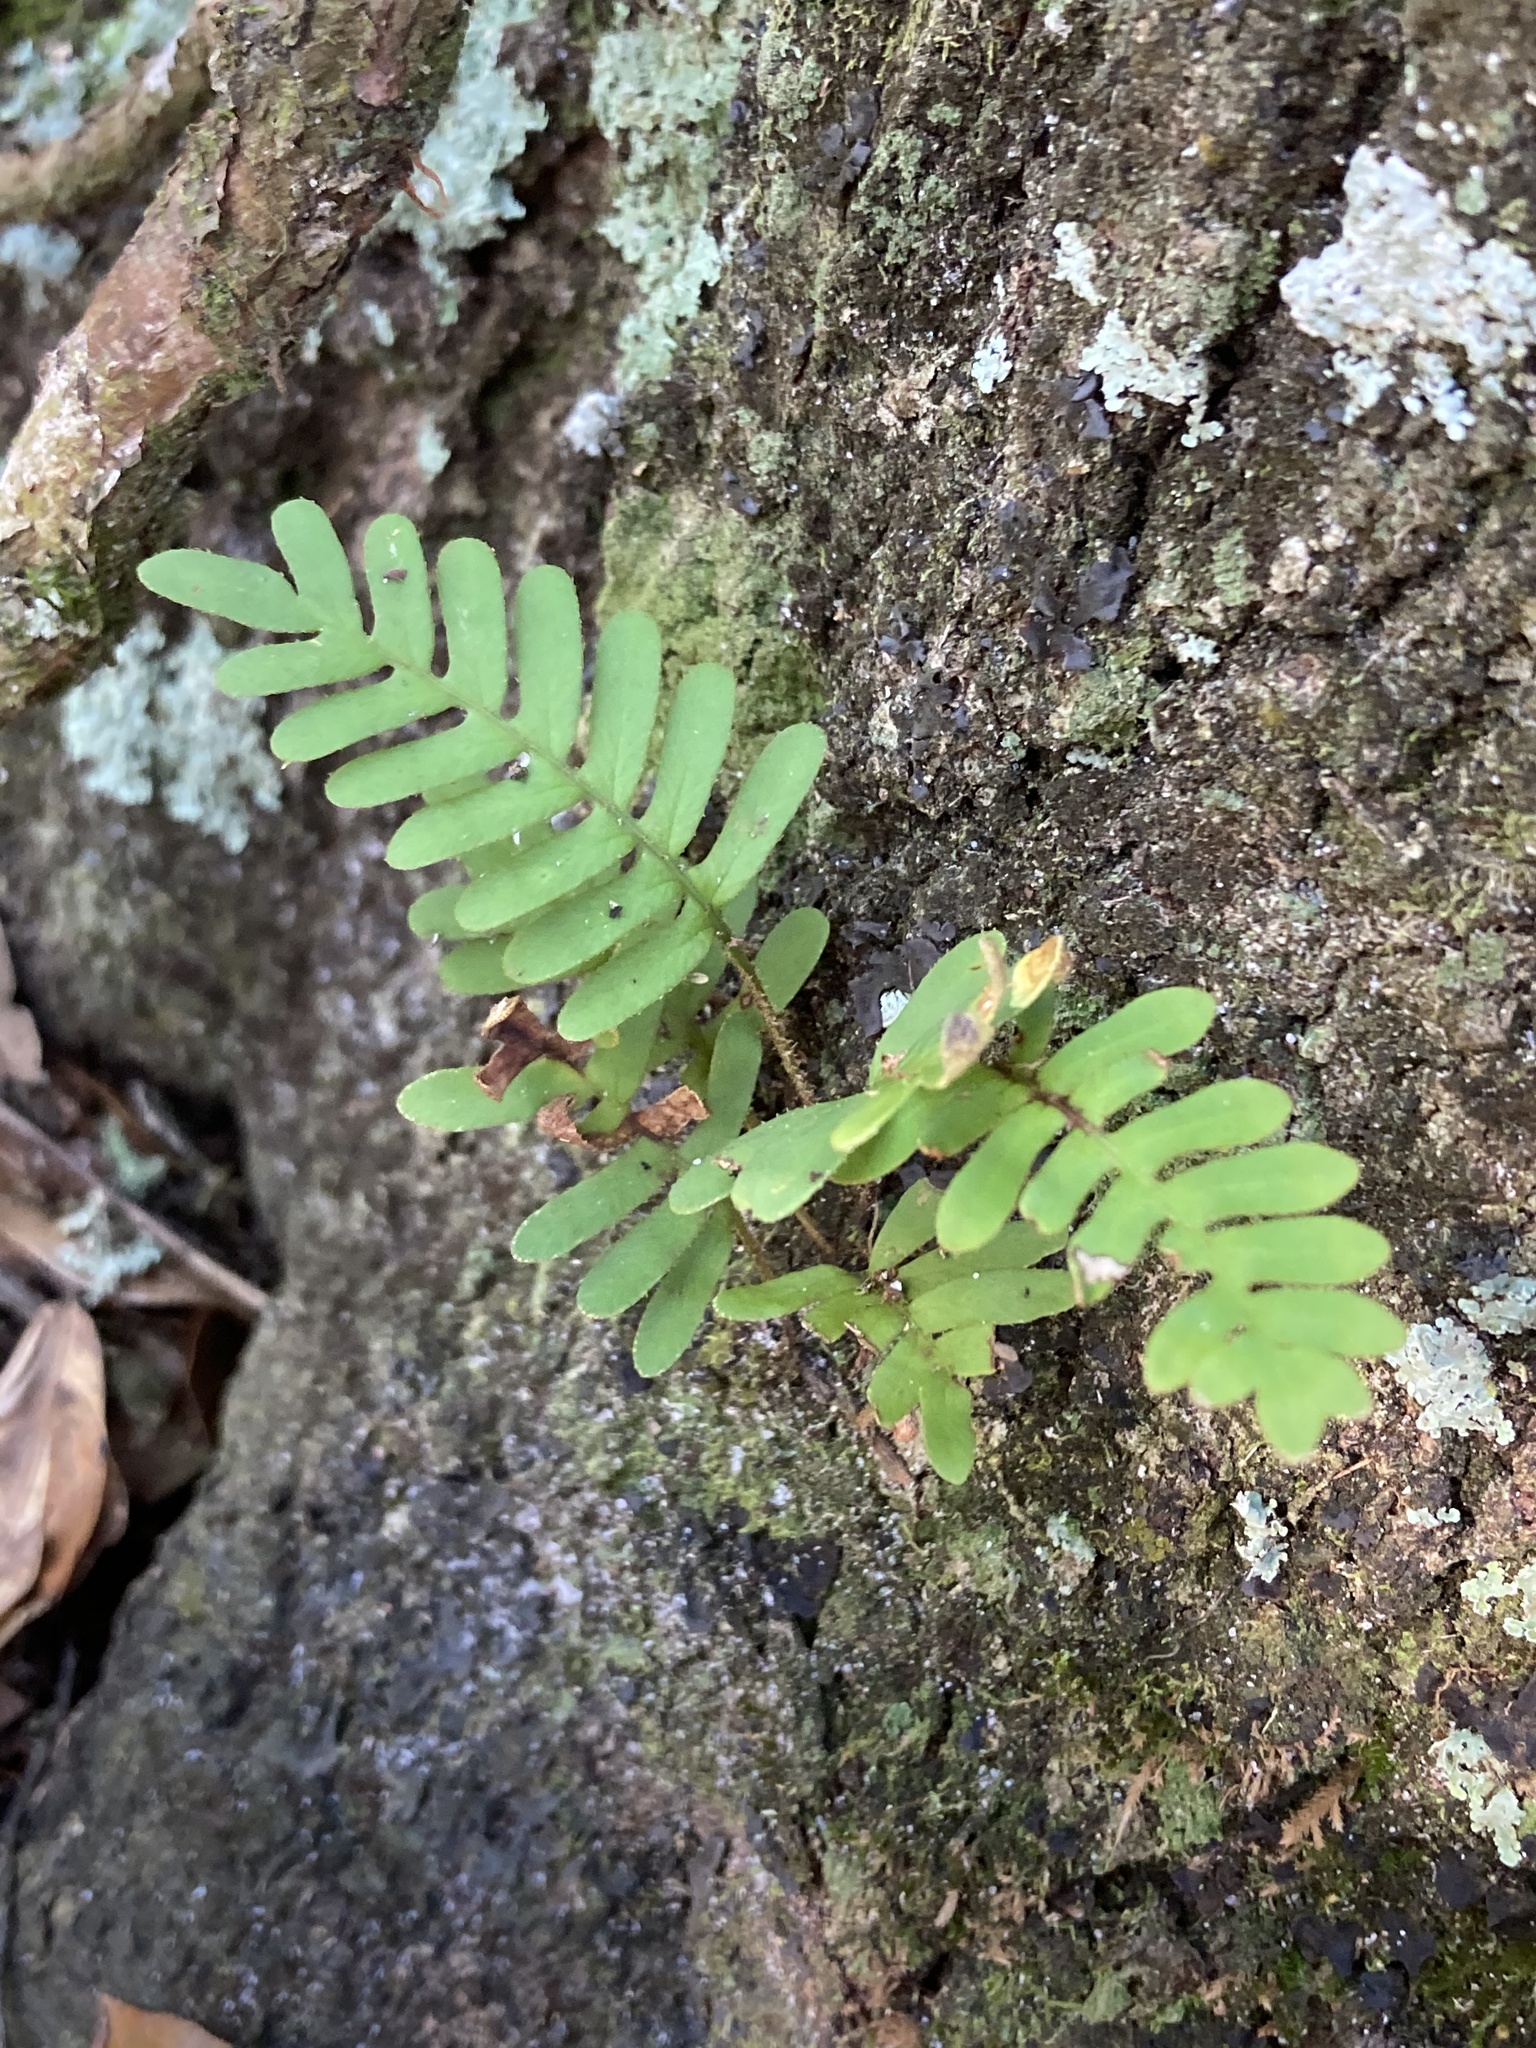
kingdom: Plantae
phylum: Tracheophyta
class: Polypodiopsida
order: Polypodiales
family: Polypodiaceae
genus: Pleopeltis
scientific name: Pleopeltis michauxiana
